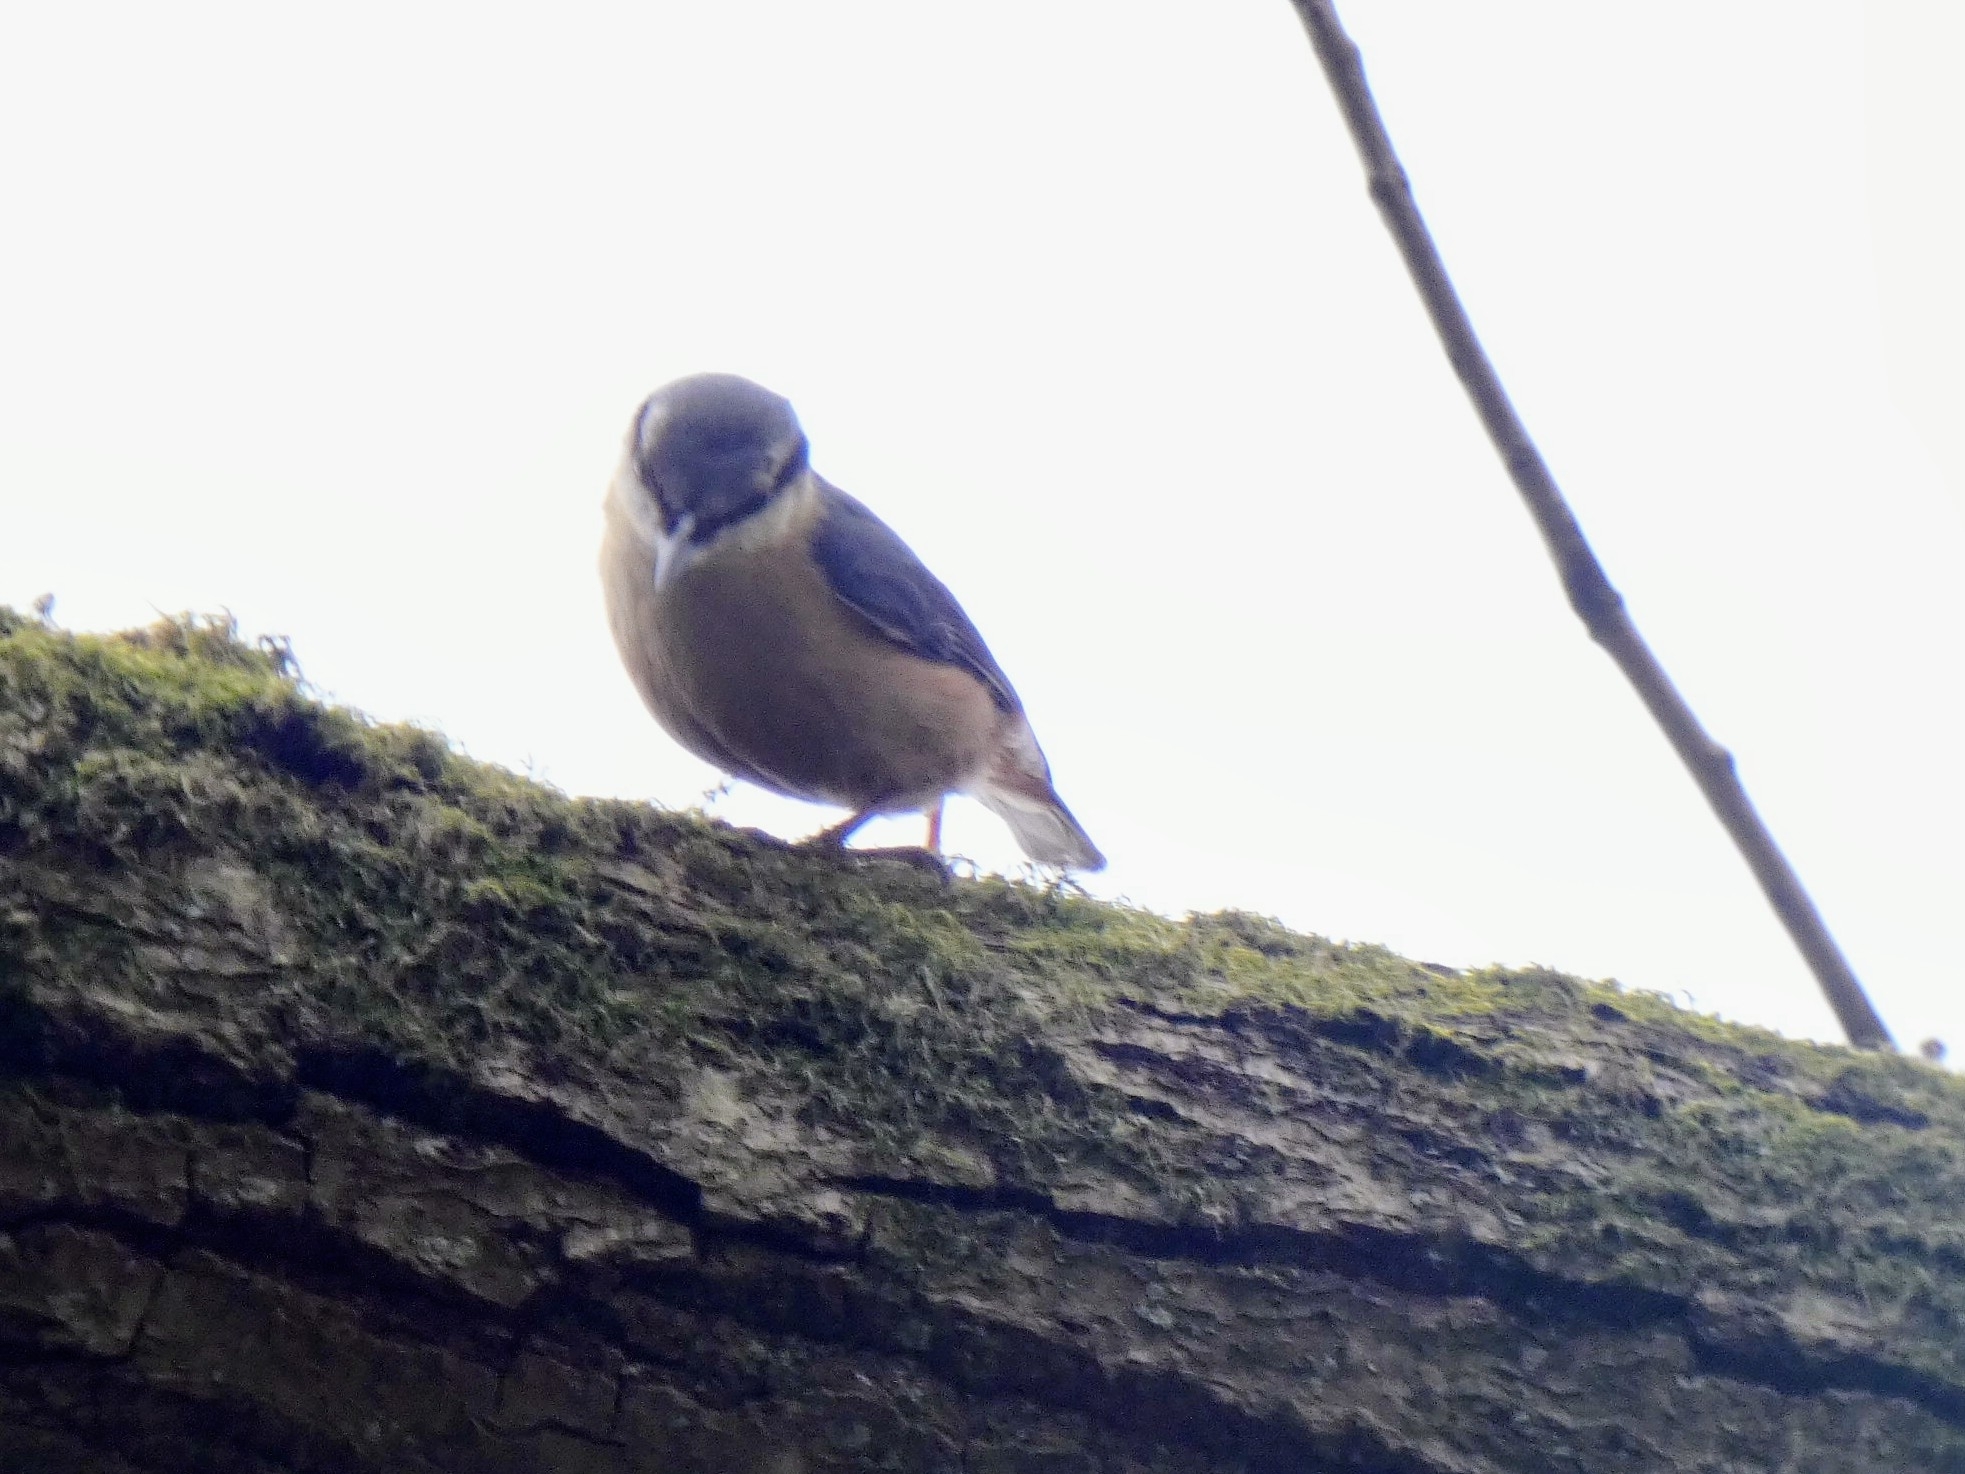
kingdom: Animalia
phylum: Chordata
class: Aves
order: Passeriformes
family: Sittidae
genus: Sitta
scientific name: Sitta europaea
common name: Eurasian nuthatch
